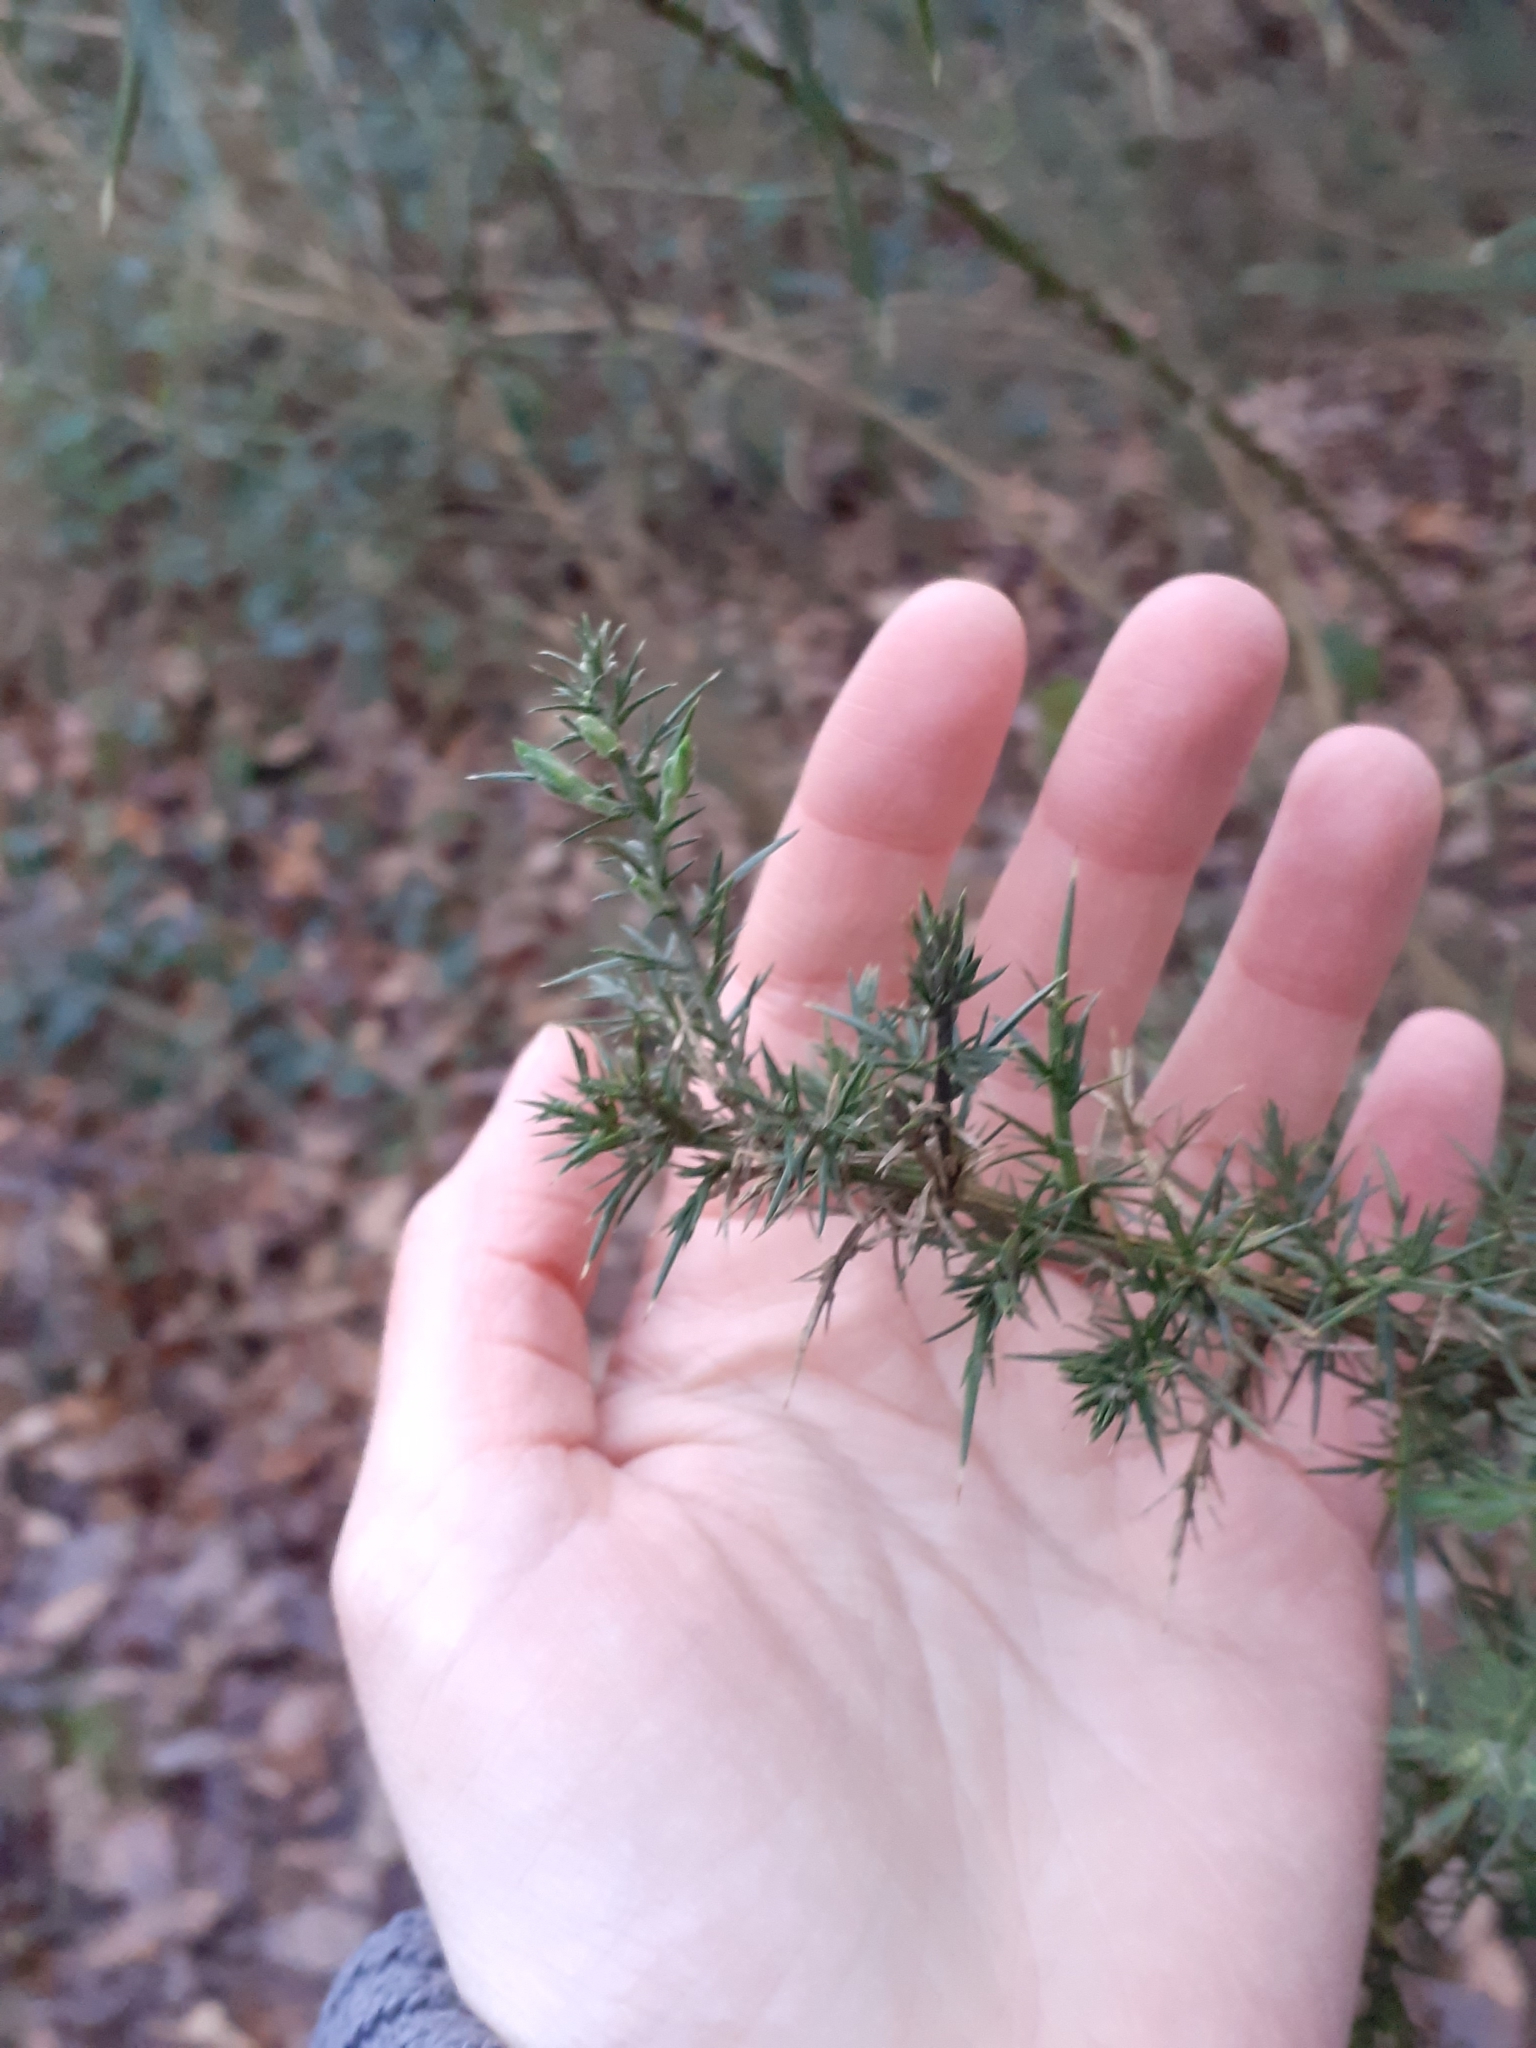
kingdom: Plantae
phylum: Tracheophyta
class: Magnoliopsida
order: Fabales
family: Fabaceae
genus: Ulex
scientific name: Ulex europaeus
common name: Common gorse
